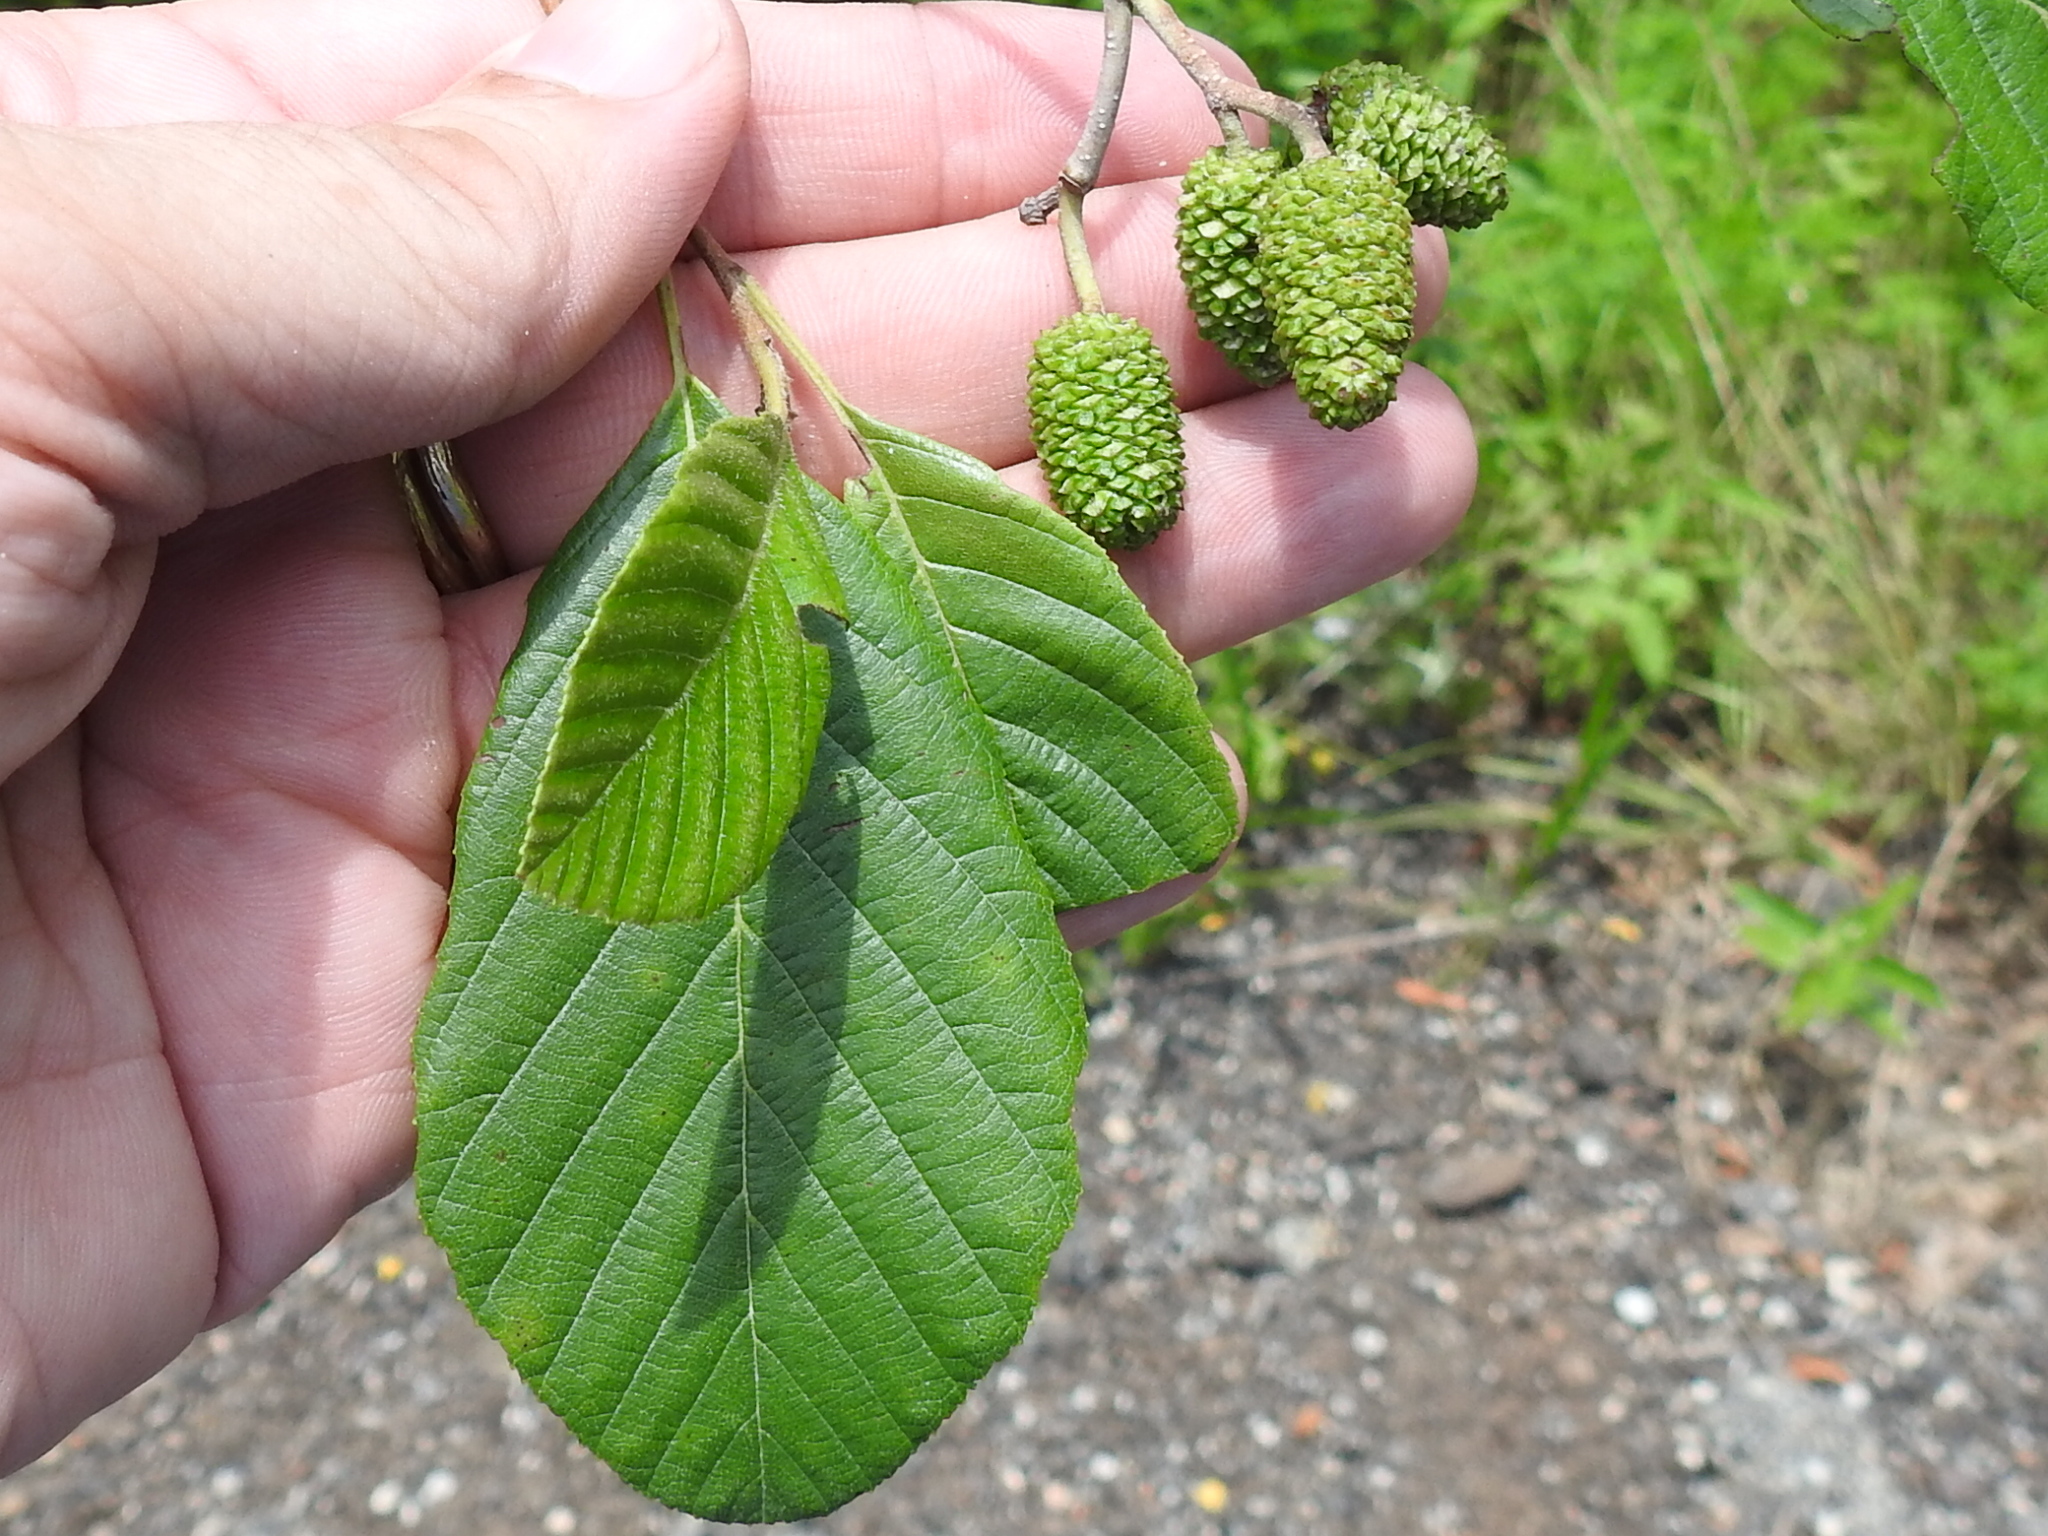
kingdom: Plantae
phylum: Tracheophyta
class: Magnoliopsida
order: Fagales
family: Betulaceae
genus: Alnus
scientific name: Alnus serrulata
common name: Hazel alder
